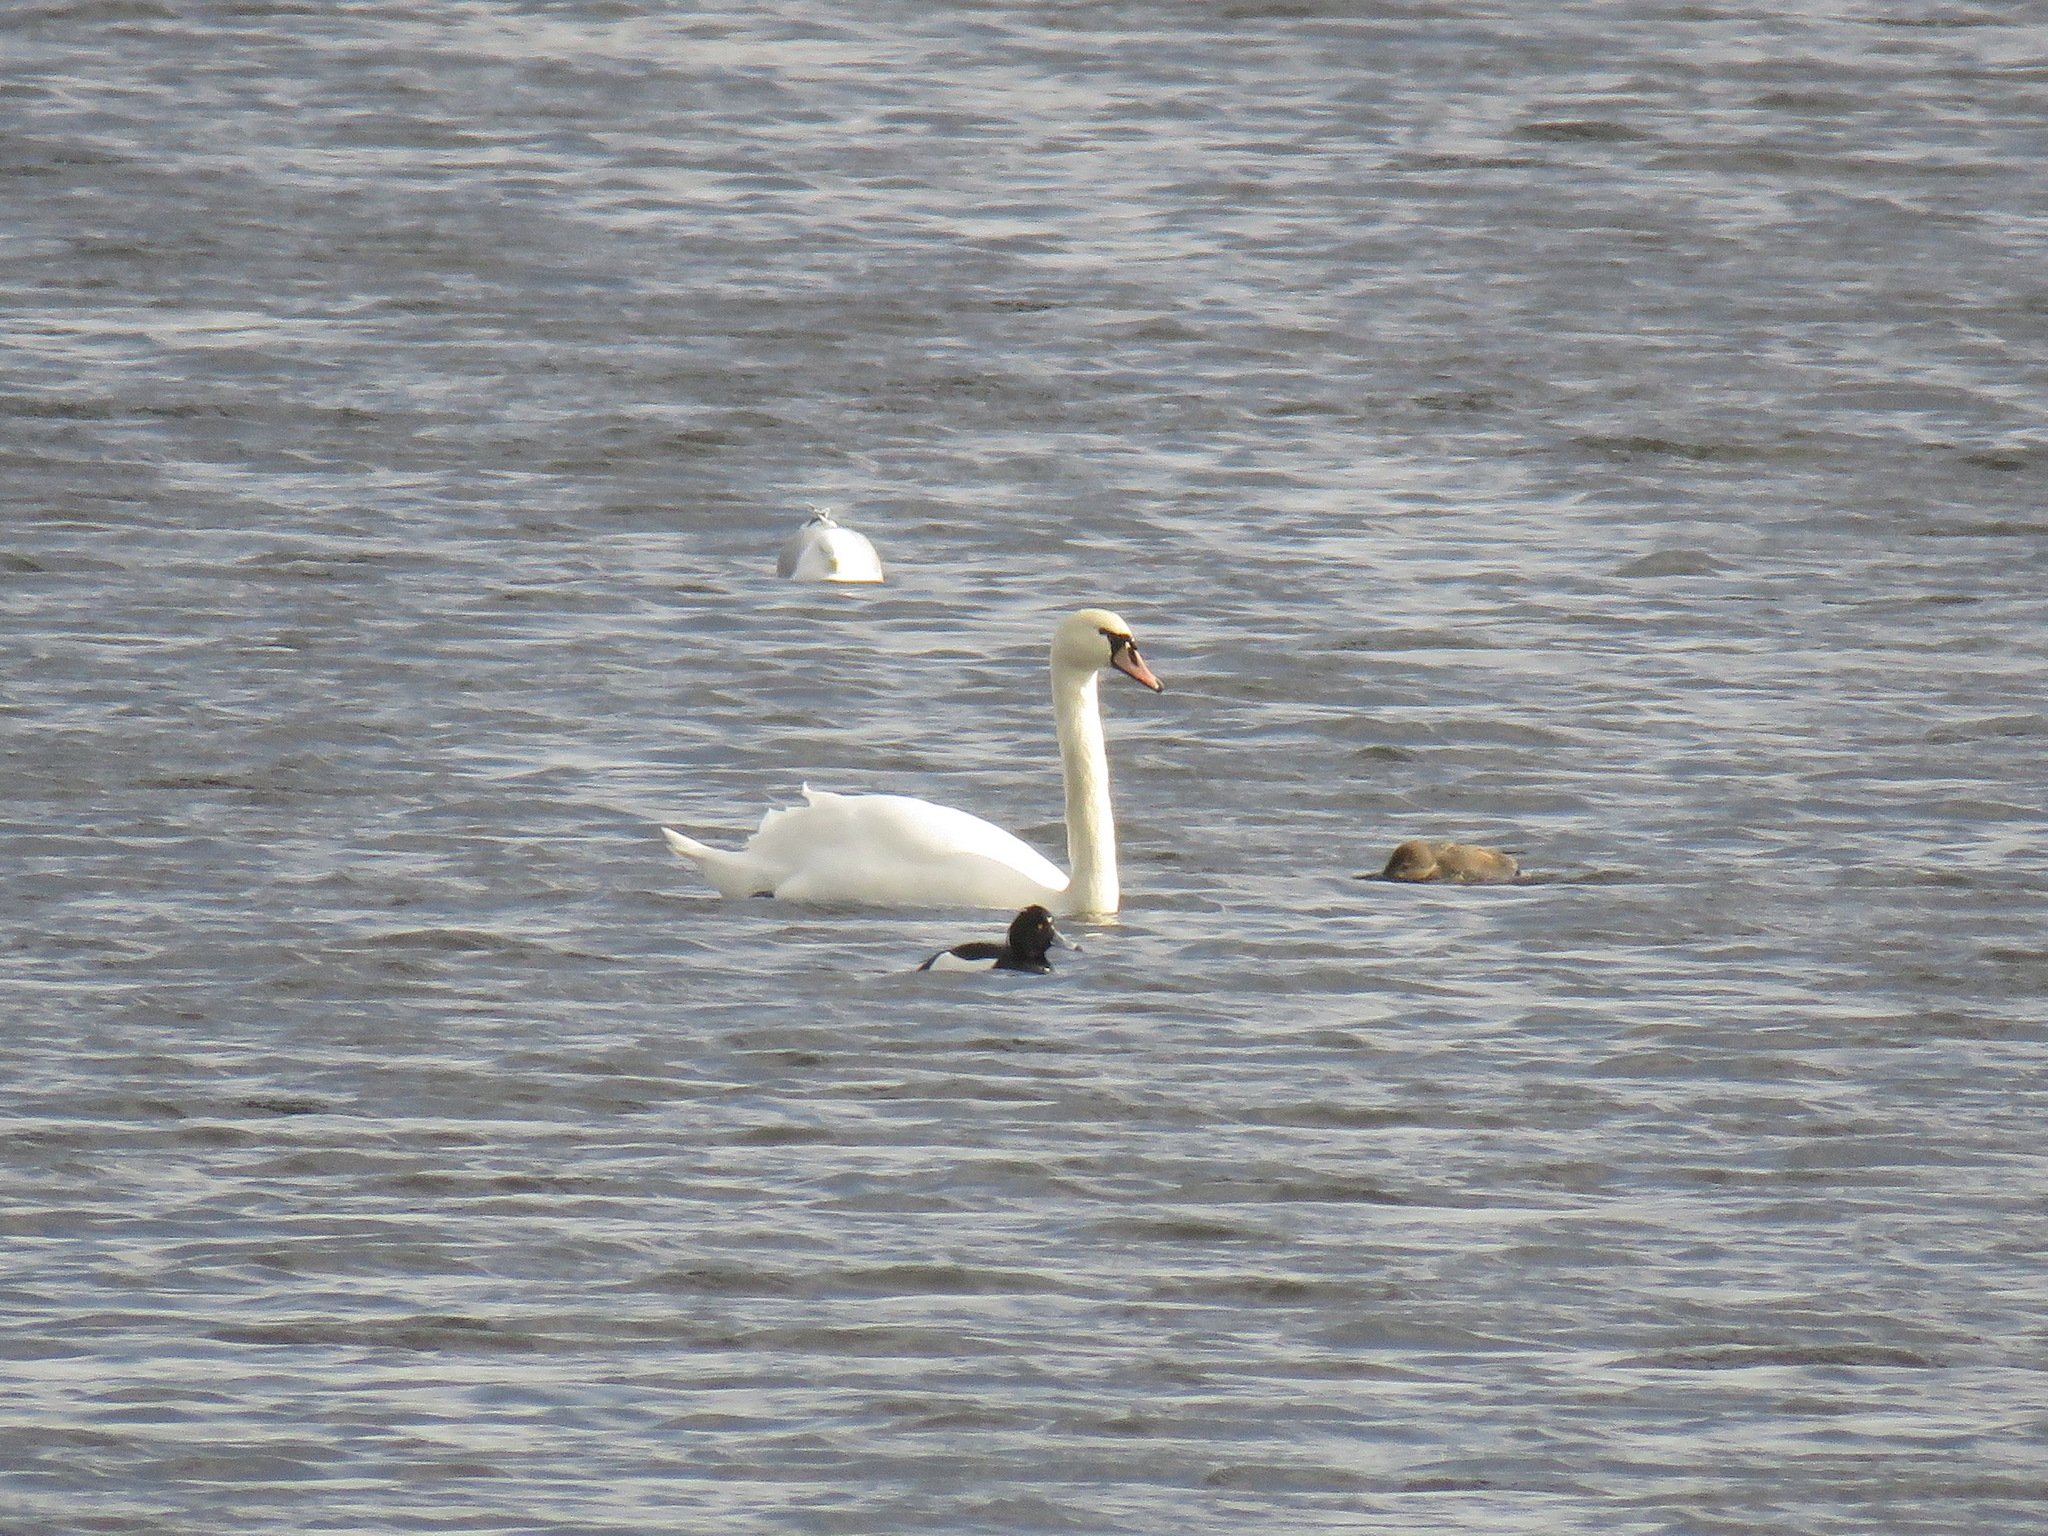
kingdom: Animalia
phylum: Chordata
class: Aves
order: Anseriformes
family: Anatidae
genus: Cygnus
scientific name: Cygnus olor
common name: Mute swan
